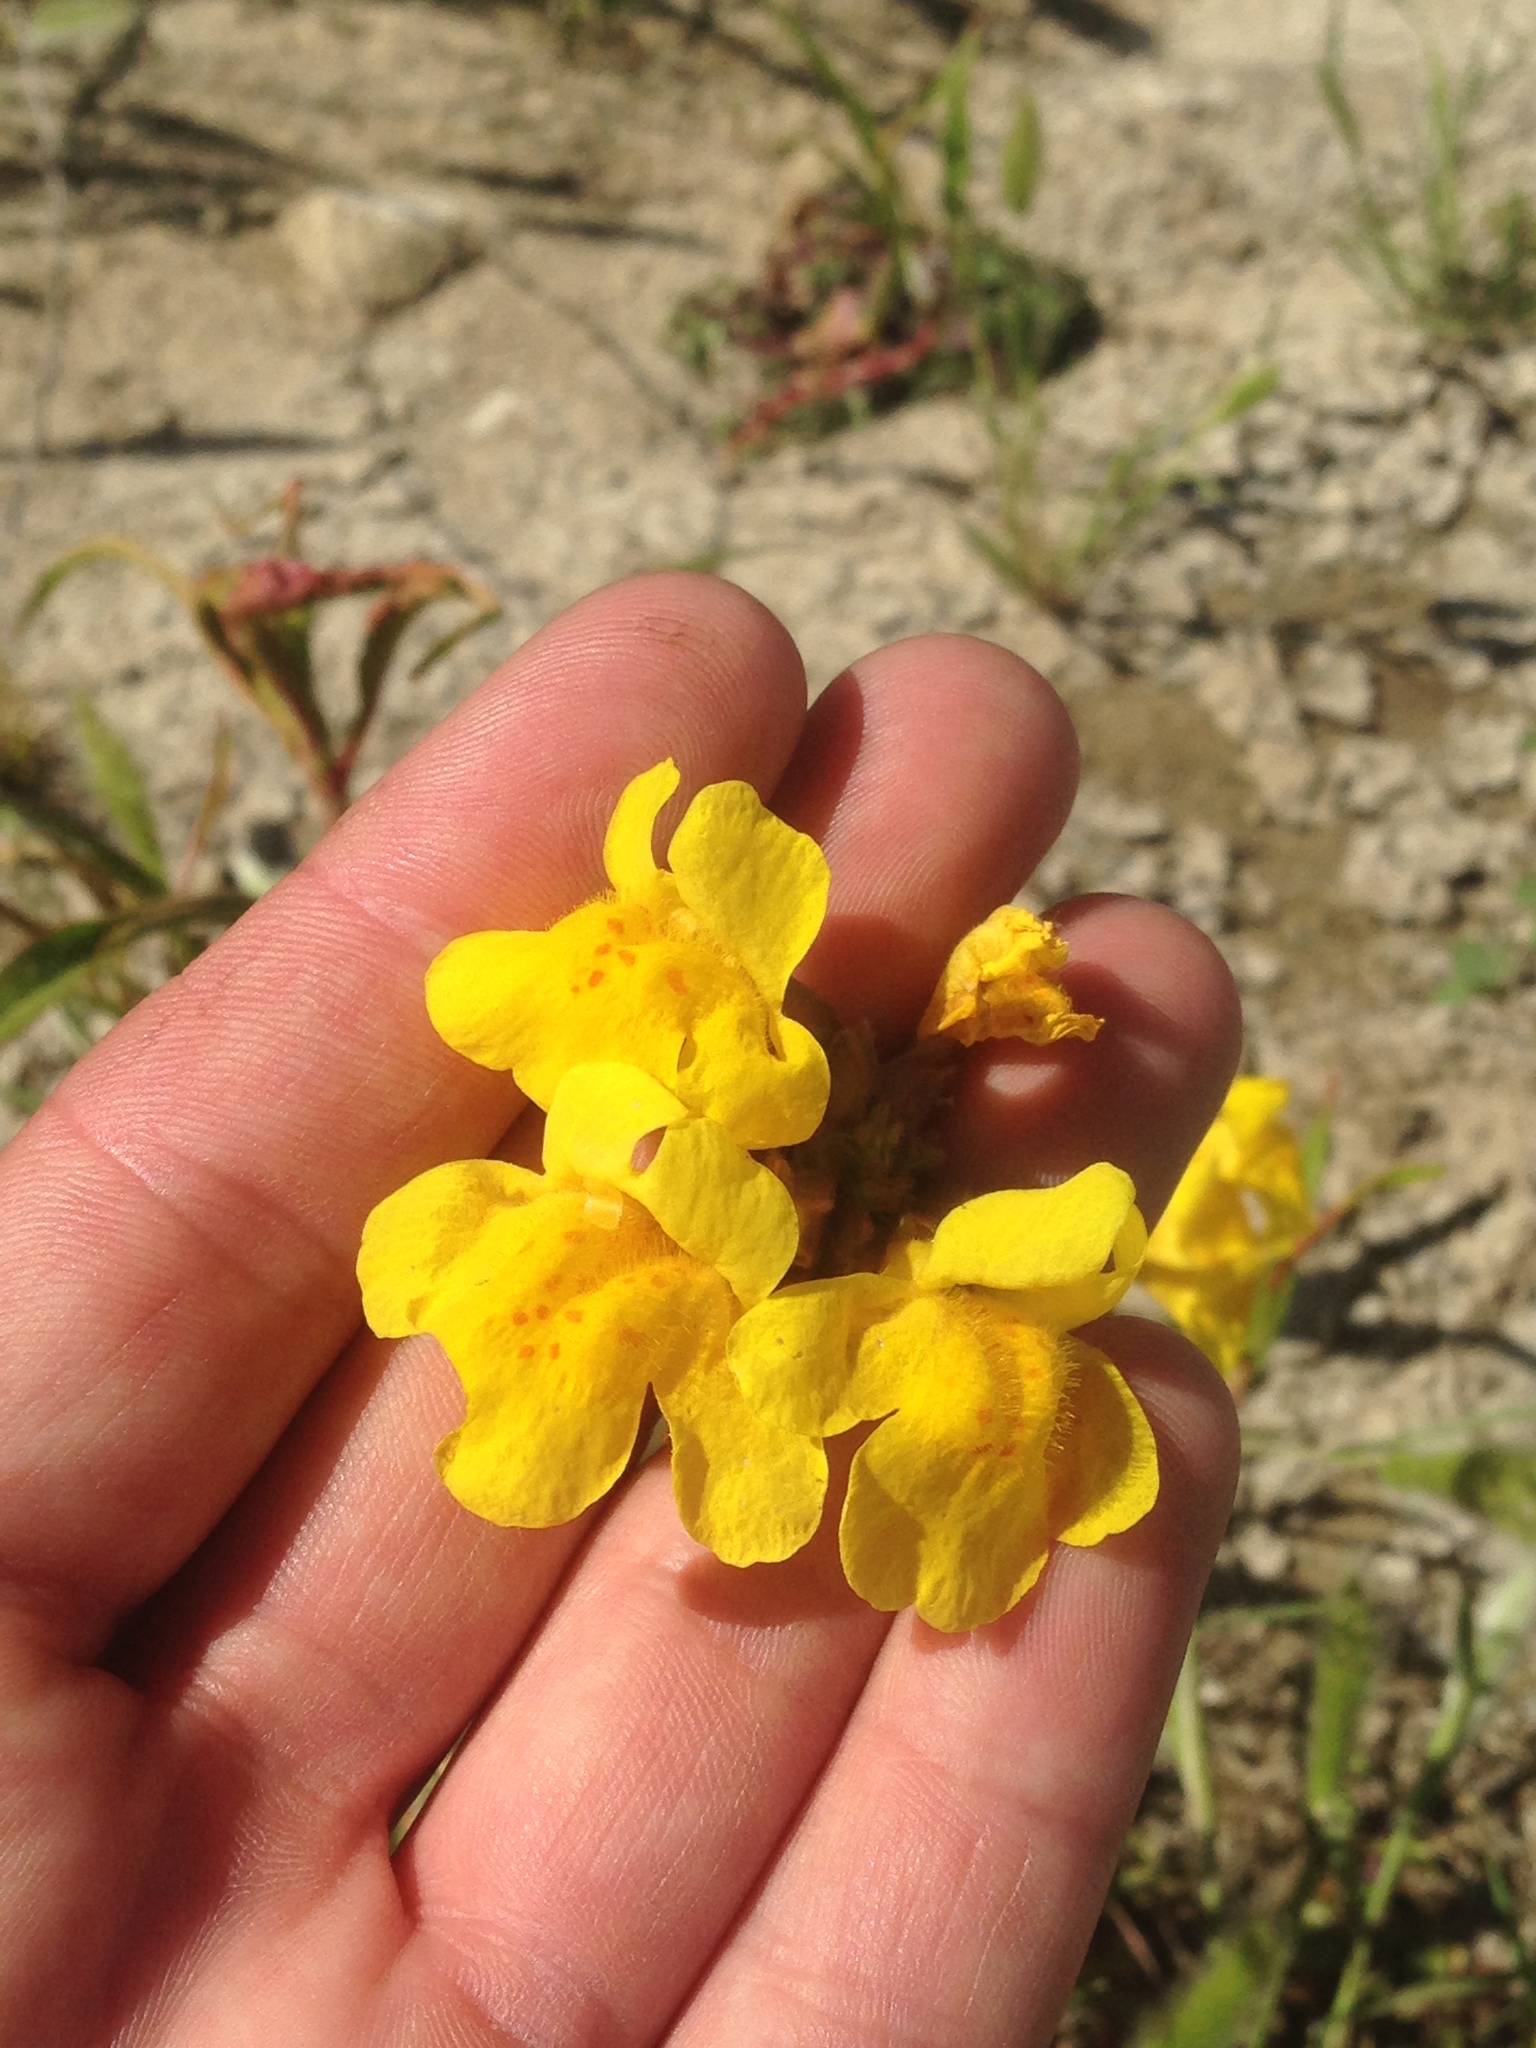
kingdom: Plantae
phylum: Tracheophyta
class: Magnoliopsida
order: Lamiales
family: Phrymaceae
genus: Erythranthe
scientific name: Erythranthe guttata
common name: Monkeyflower
